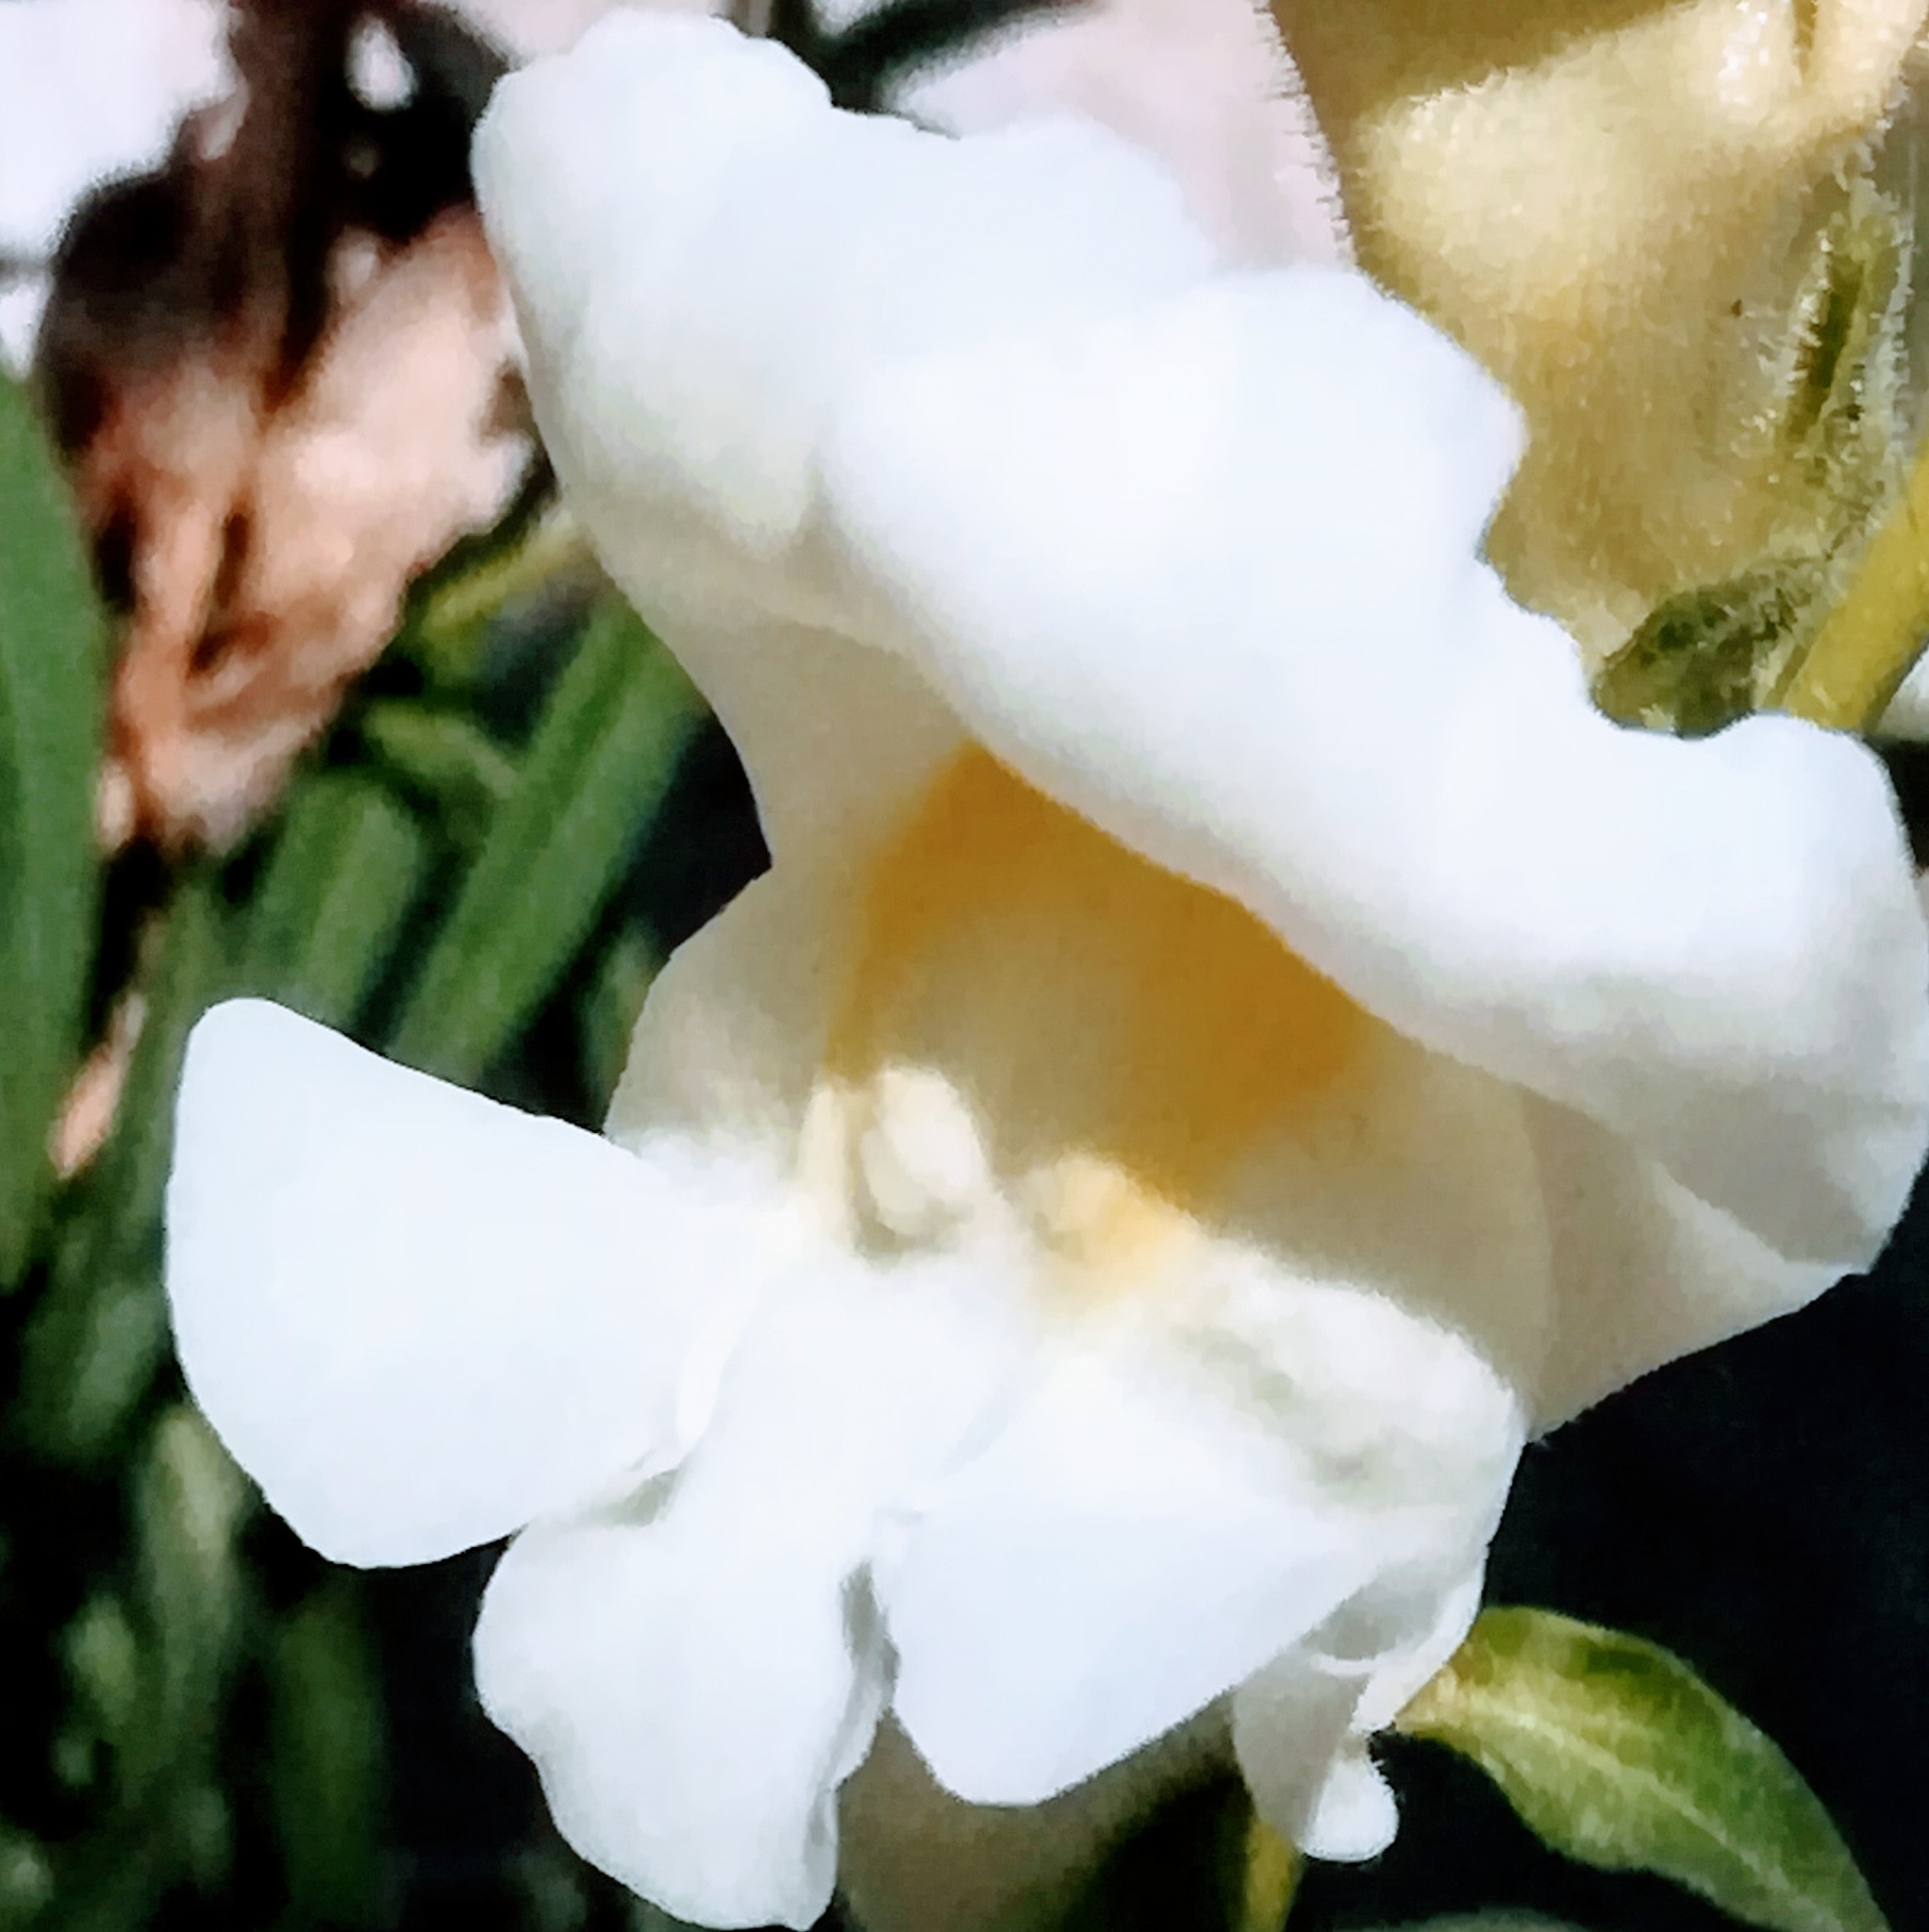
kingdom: Plantae
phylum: Tracheophyta
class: Magnoliopsida
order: Lamiales
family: Plantaginaceae
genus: Antirrhinum
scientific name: Antirrhinum majus
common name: Snapdragon
